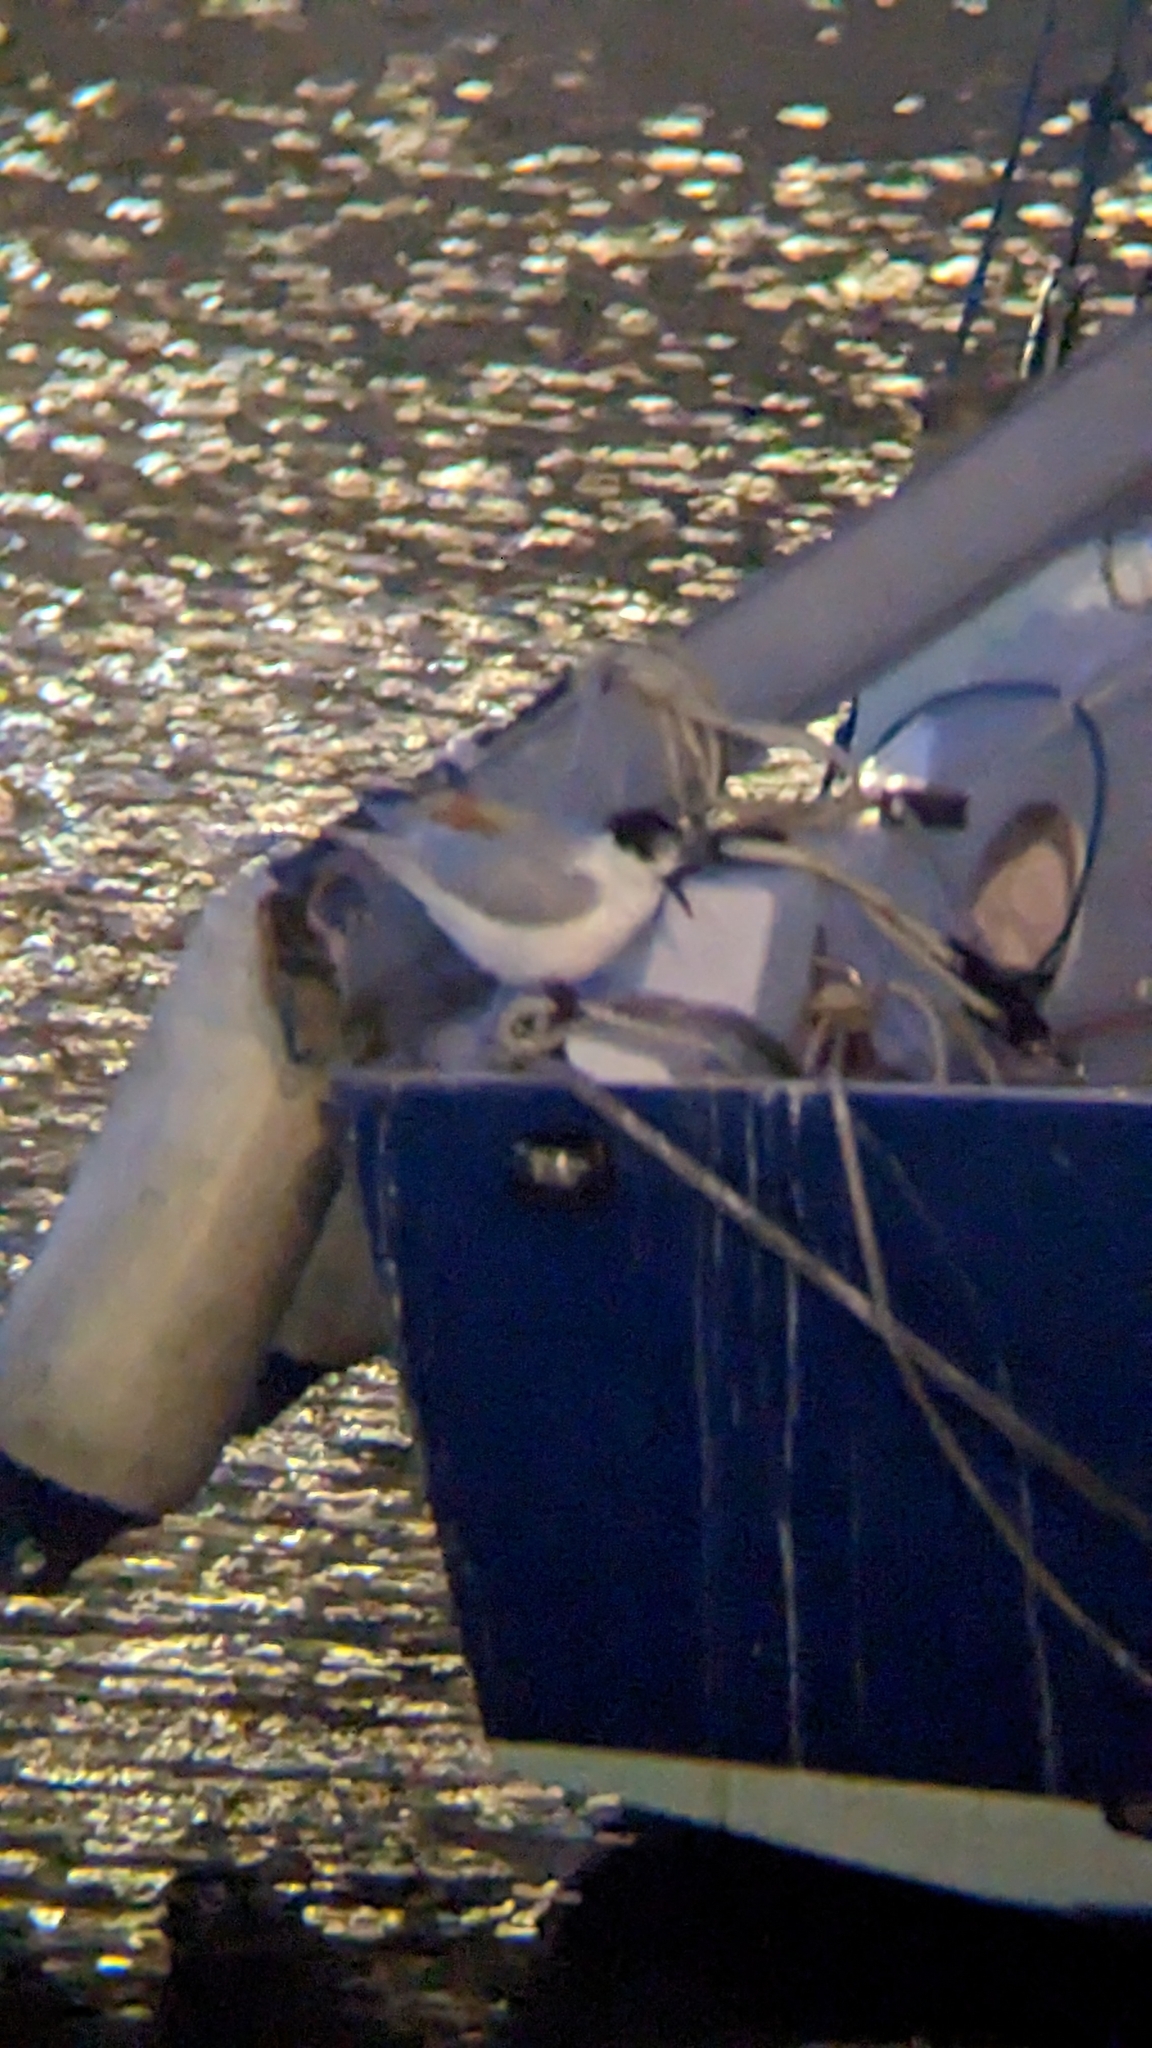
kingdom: Animalia
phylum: Chordata
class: Aves
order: Charadriiformes
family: Laridae
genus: Sterna
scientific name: Sterna striata
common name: White-fronted tern
